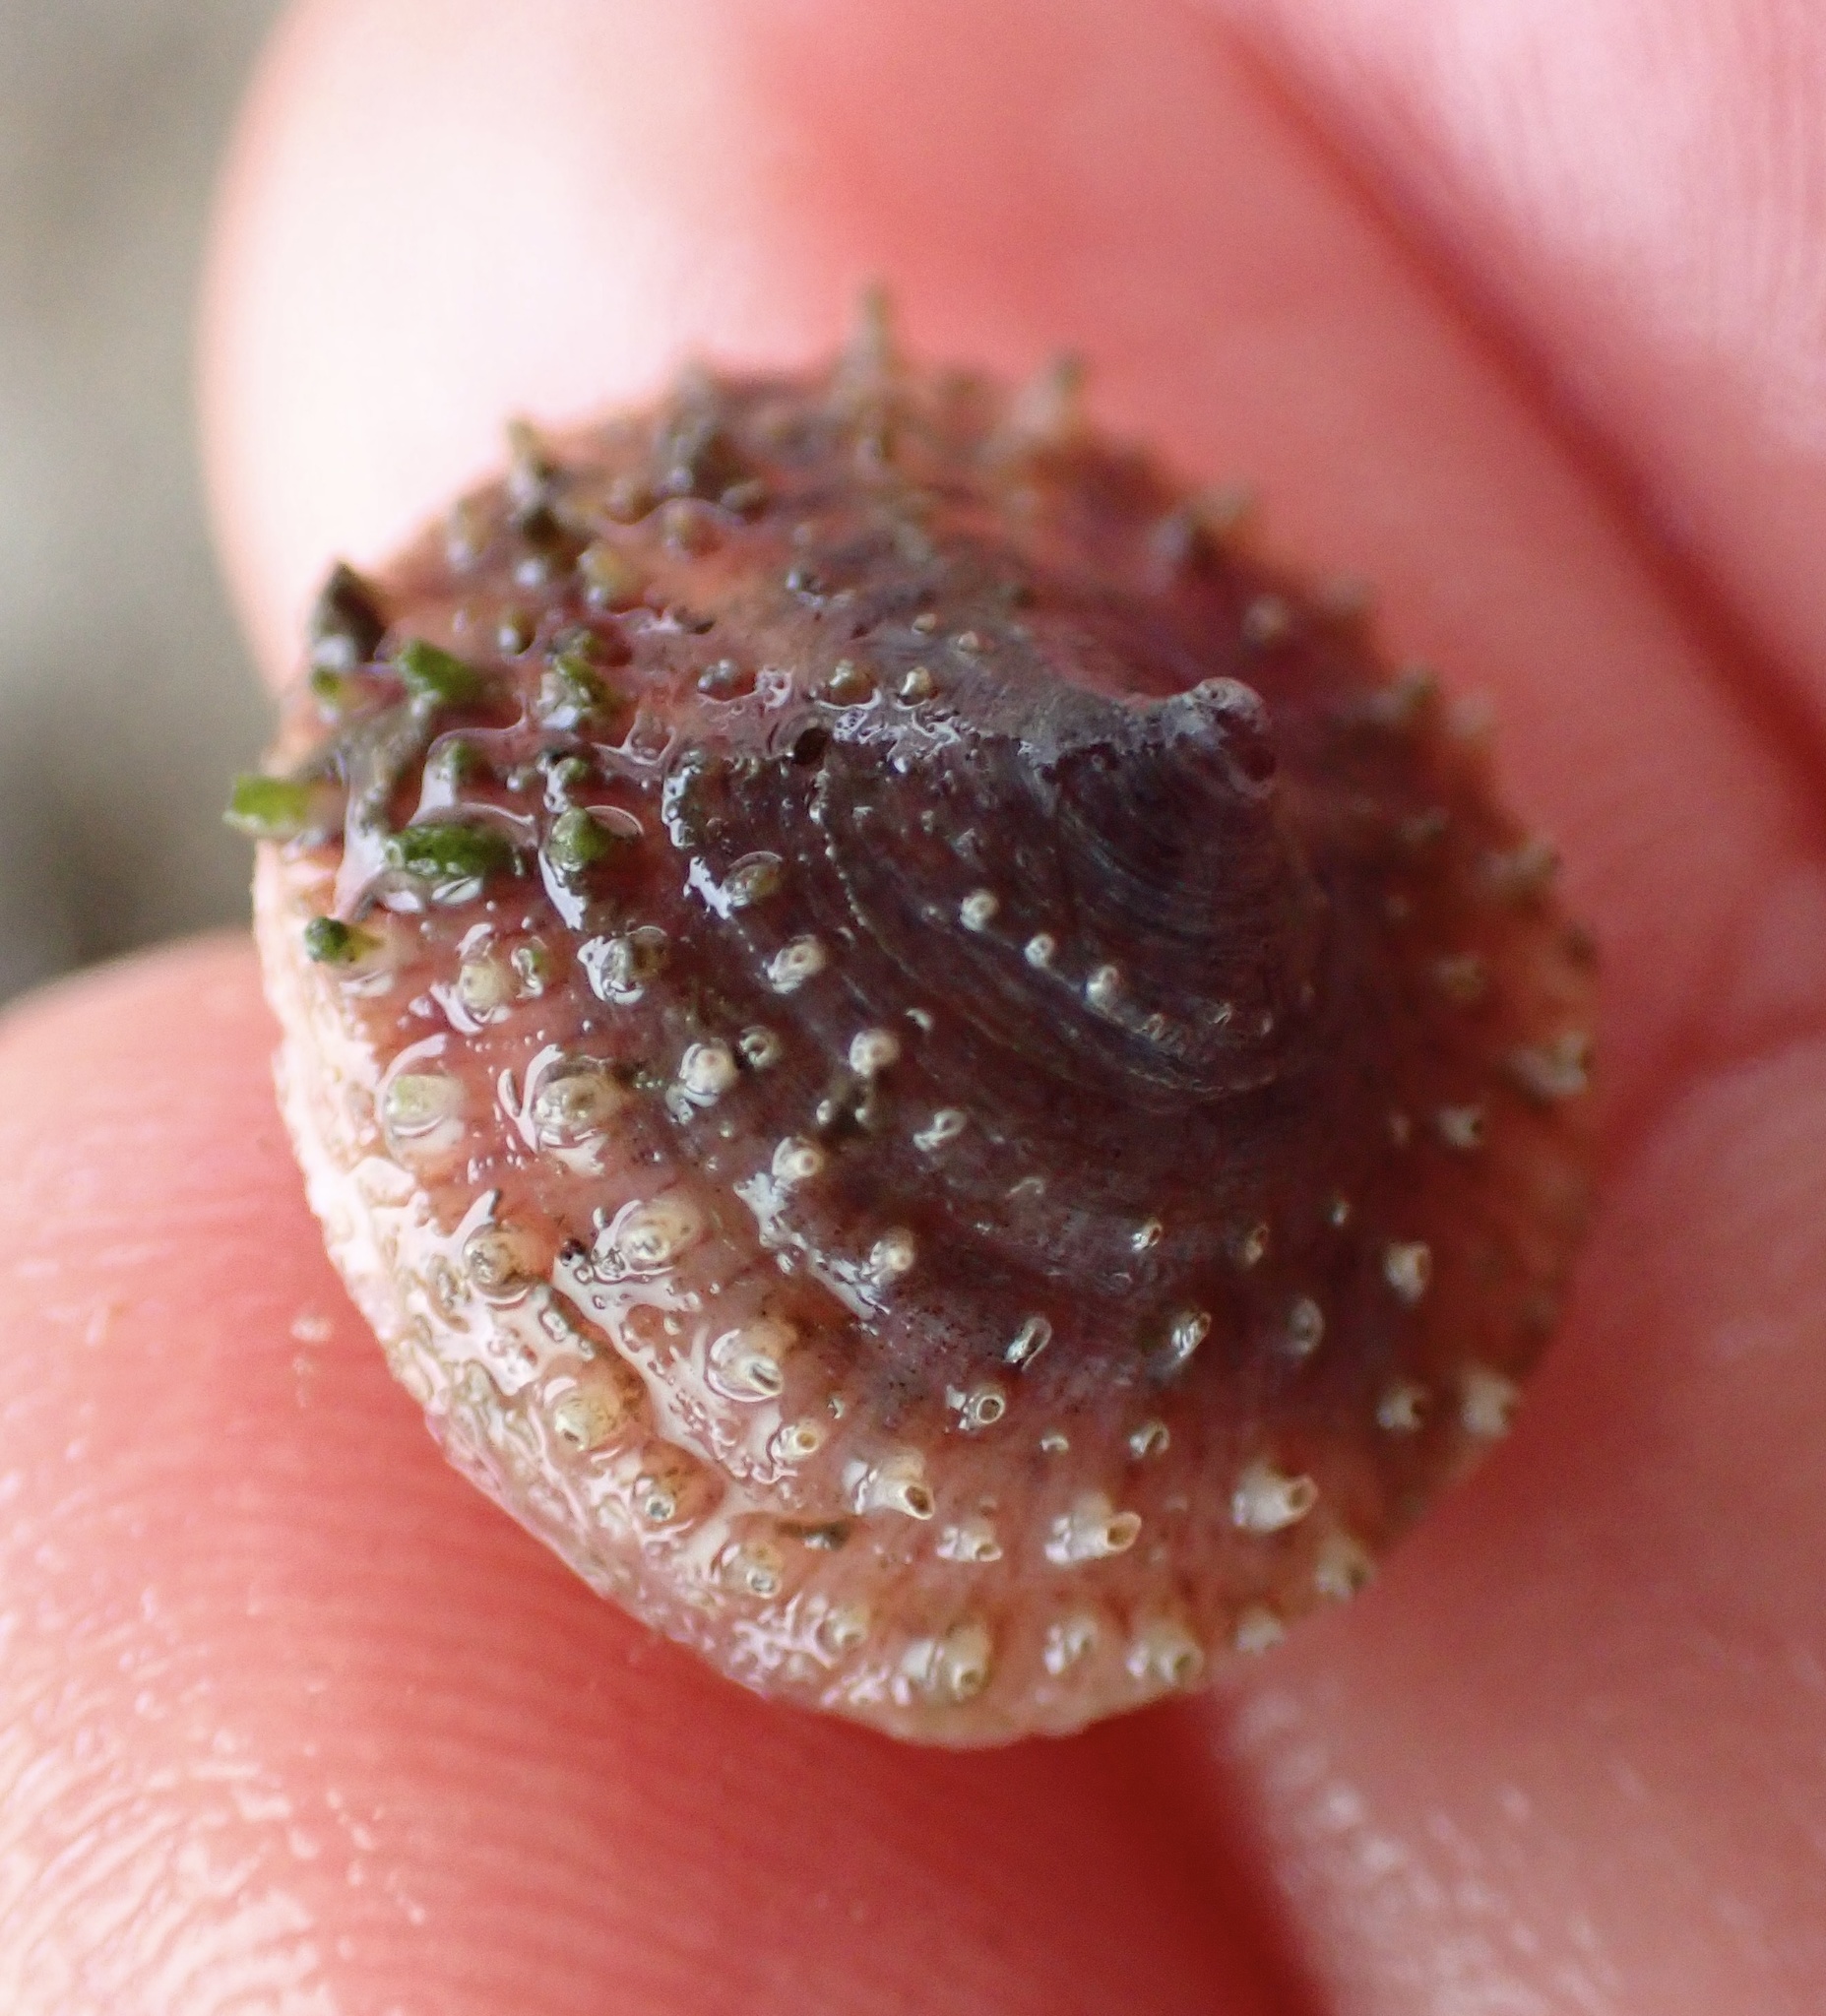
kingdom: Animalia
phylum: Mollusca
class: Gastropoda
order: Littorinimorpha
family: Calyptraeidae
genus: Crucibulum
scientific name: Crucibulum spinosum
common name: Spiny cup-and-saucer
